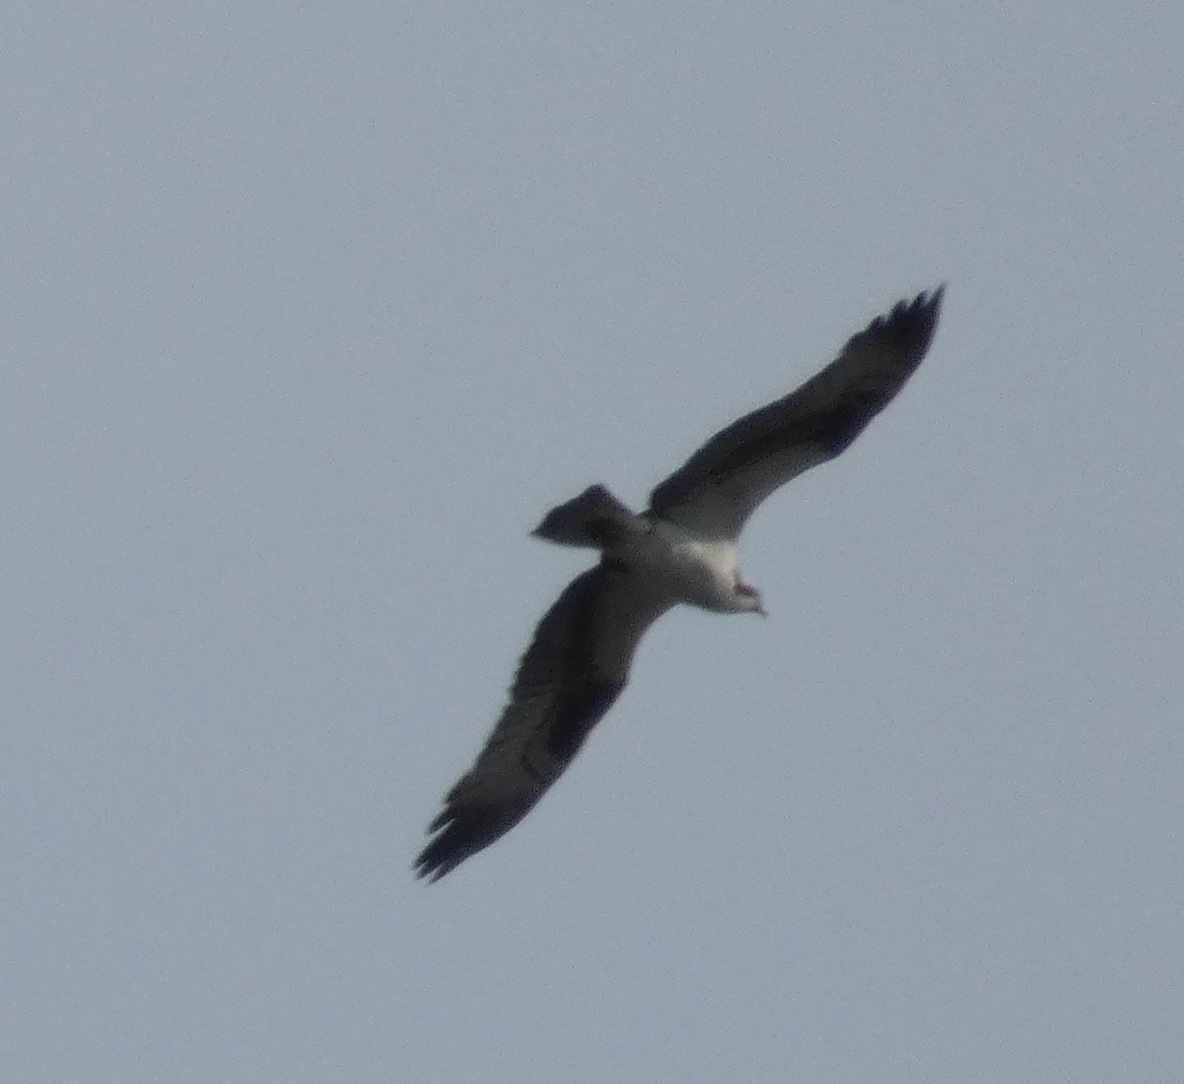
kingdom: Animalia
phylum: Chordata
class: Aves
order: Accipitriformes
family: Pandionidae
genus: Pandion
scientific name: Pandion haliaetus
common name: Osprey
